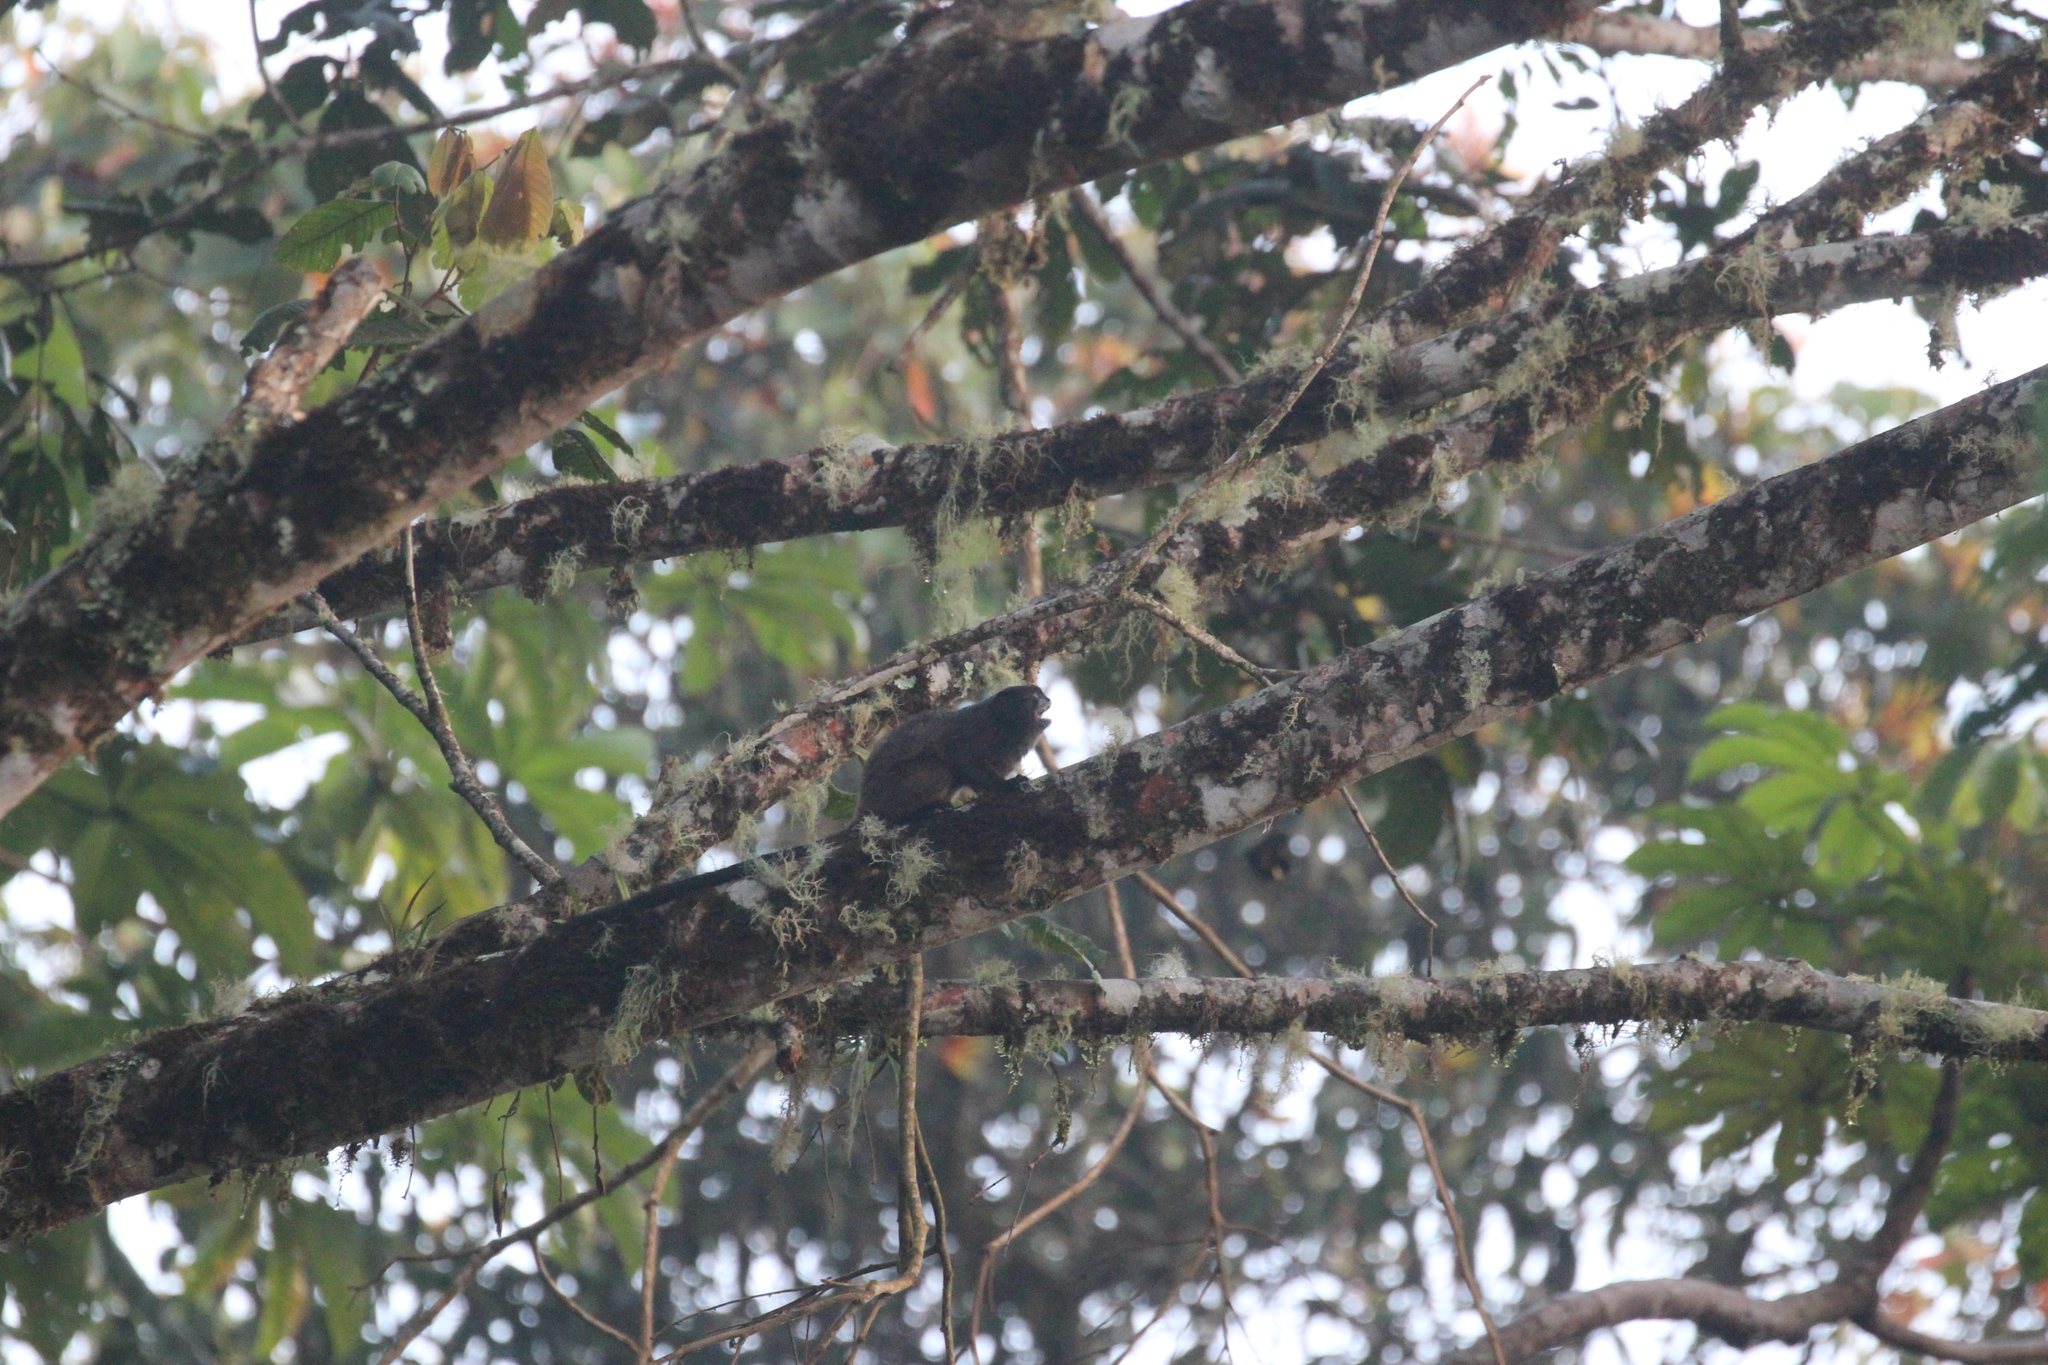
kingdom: Animalia
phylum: Chordata
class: Mammalia
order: Primates
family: Callitrichidae
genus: Leontocebus
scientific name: Leontocebus nigricollis
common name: Black-mantled tamarin
